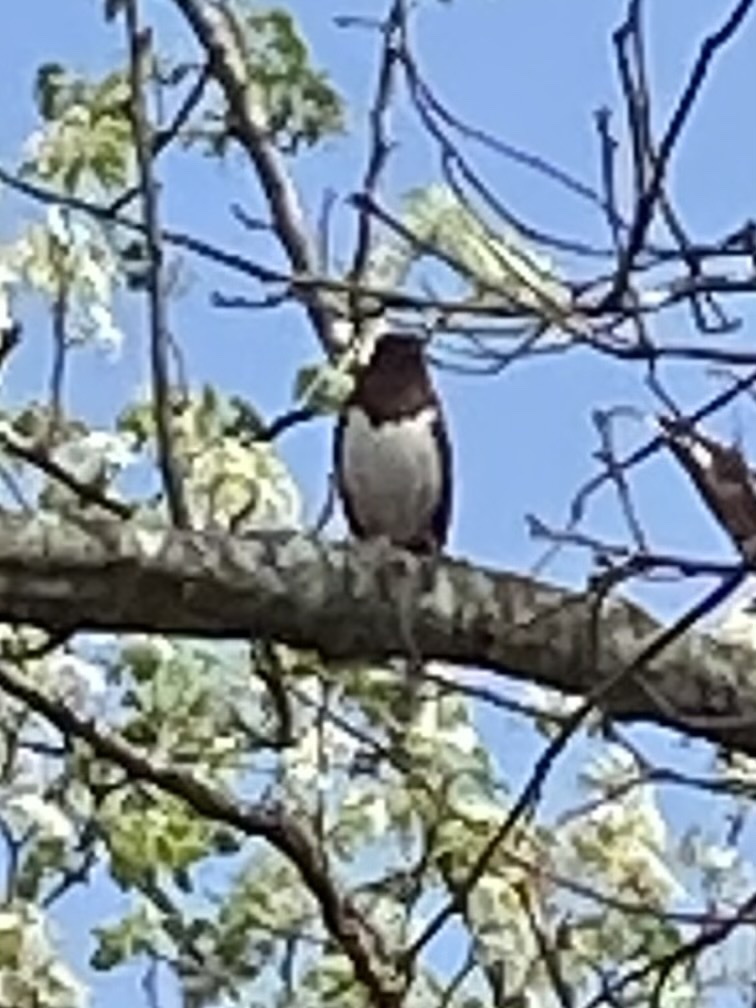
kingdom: Animalia
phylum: Chordata
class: Aves
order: Passeriformes
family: Passerellidae
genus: Pipilo
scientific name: Pipilo erythrophthalmus
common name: Eastern towhee
